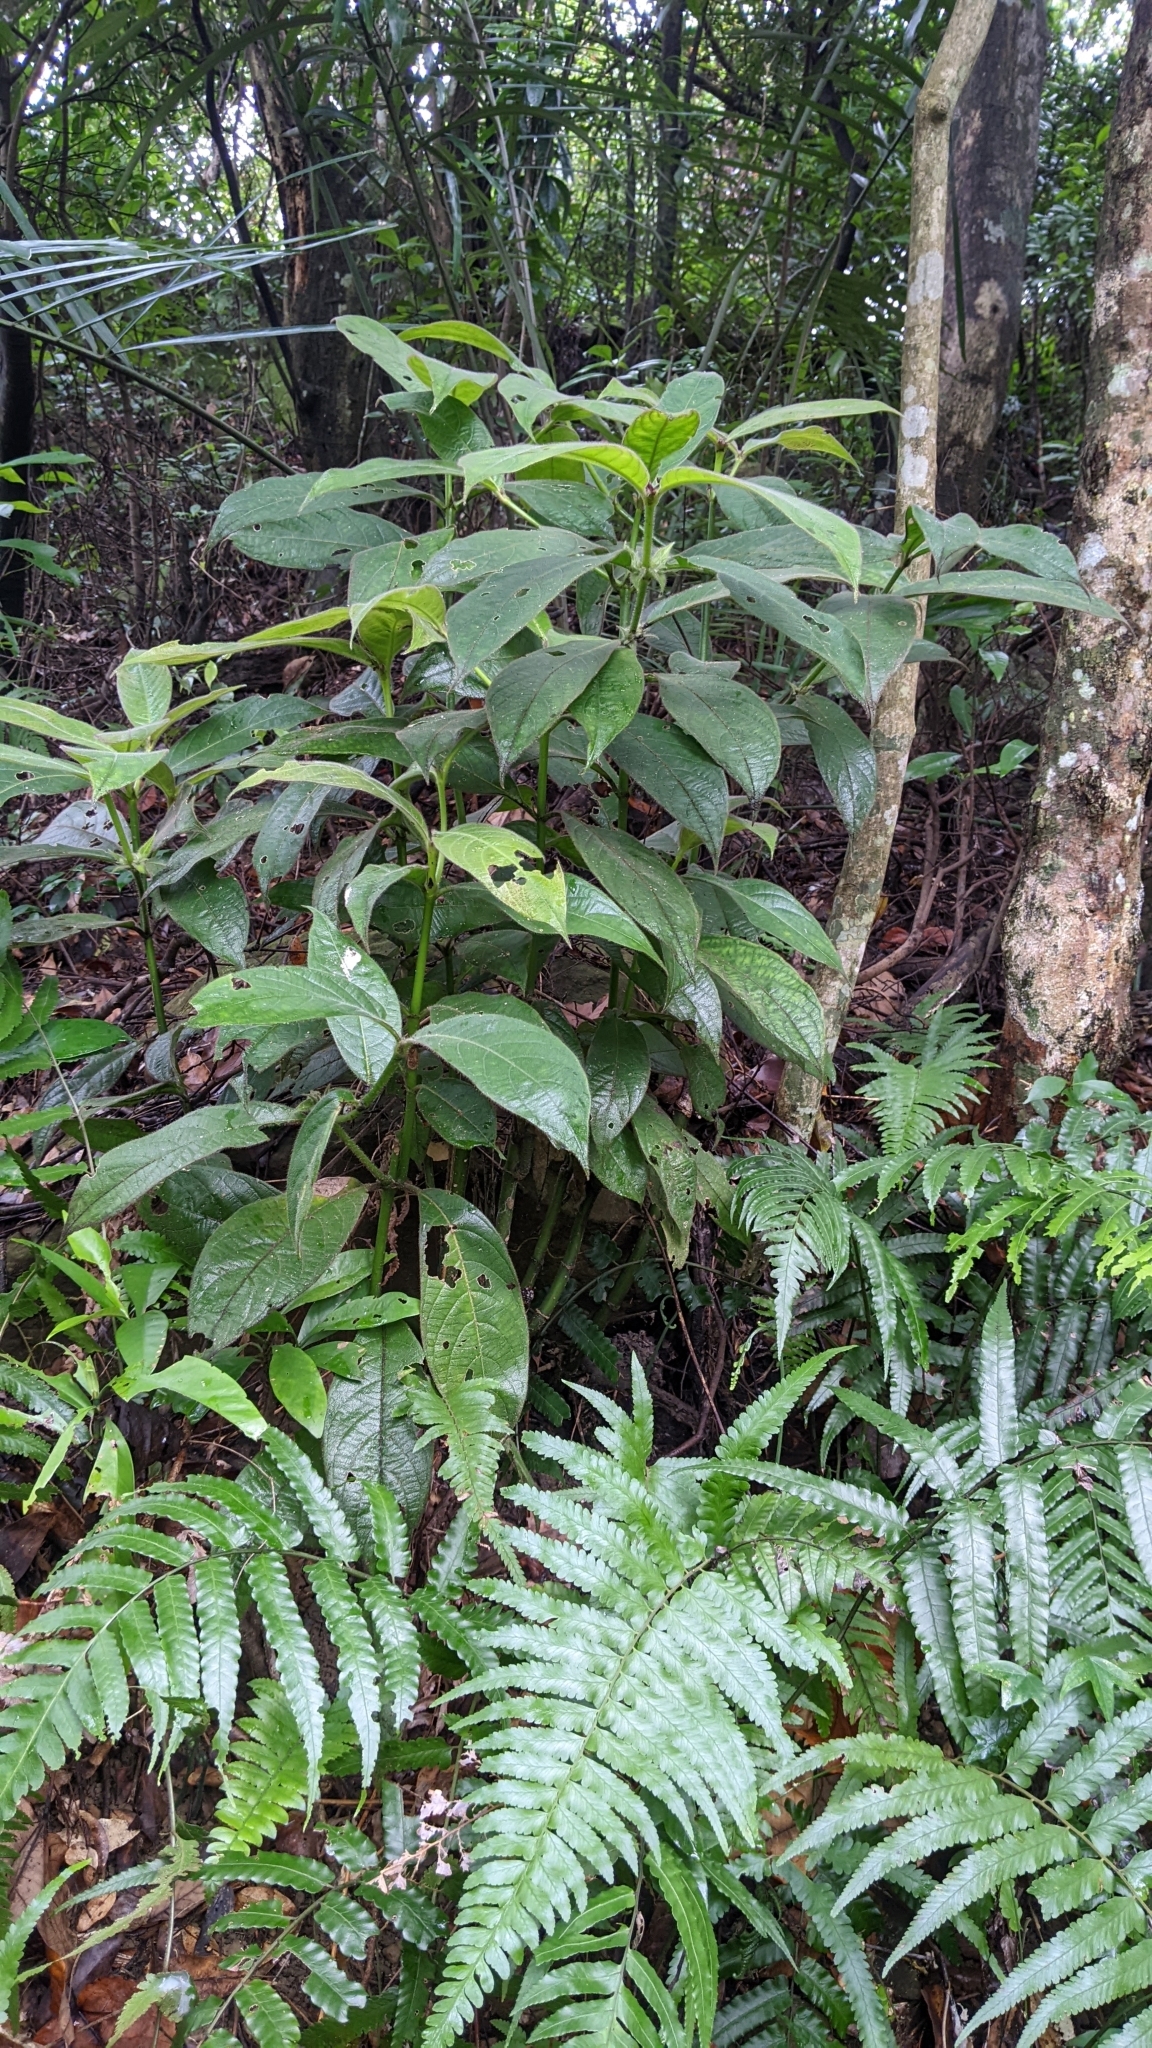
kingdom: Plantae
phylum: Tracheophyta
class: Magnoliopsida
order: Gentianales
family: Rubiaceae
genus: Lasianthus
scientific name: Lasianthus cyanocarpus
